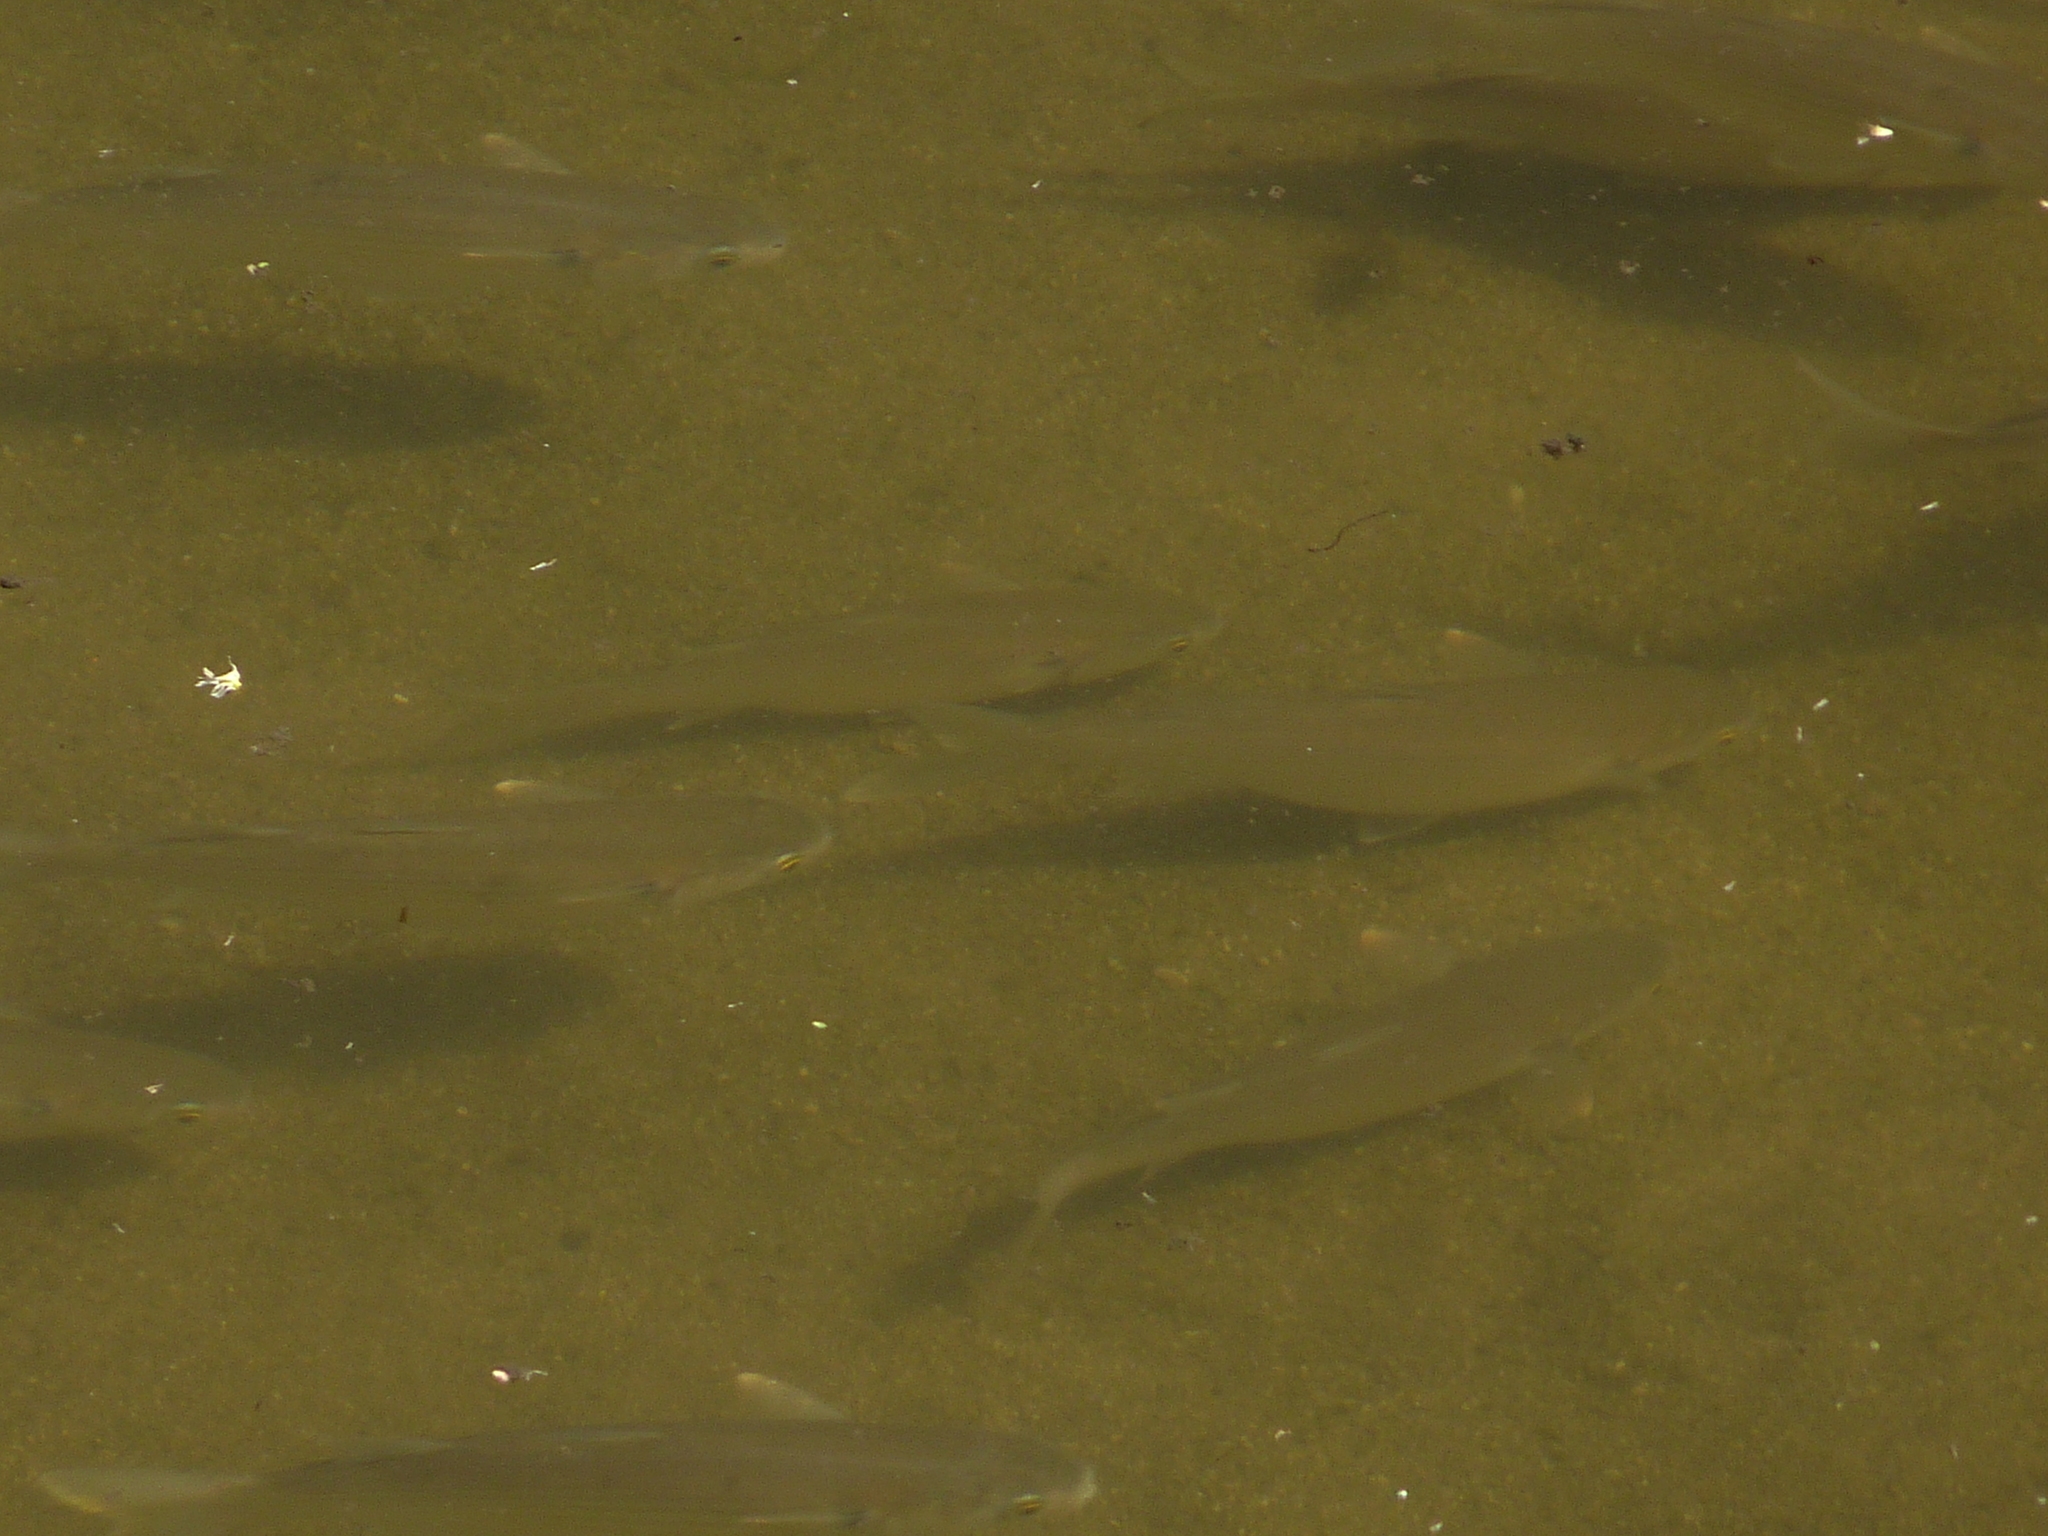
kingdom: Animalia
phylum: Chordata
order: Mugiliformes
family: Mugilidae
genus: Mugil
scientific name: Mugil cephalus
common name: Grey mullet
